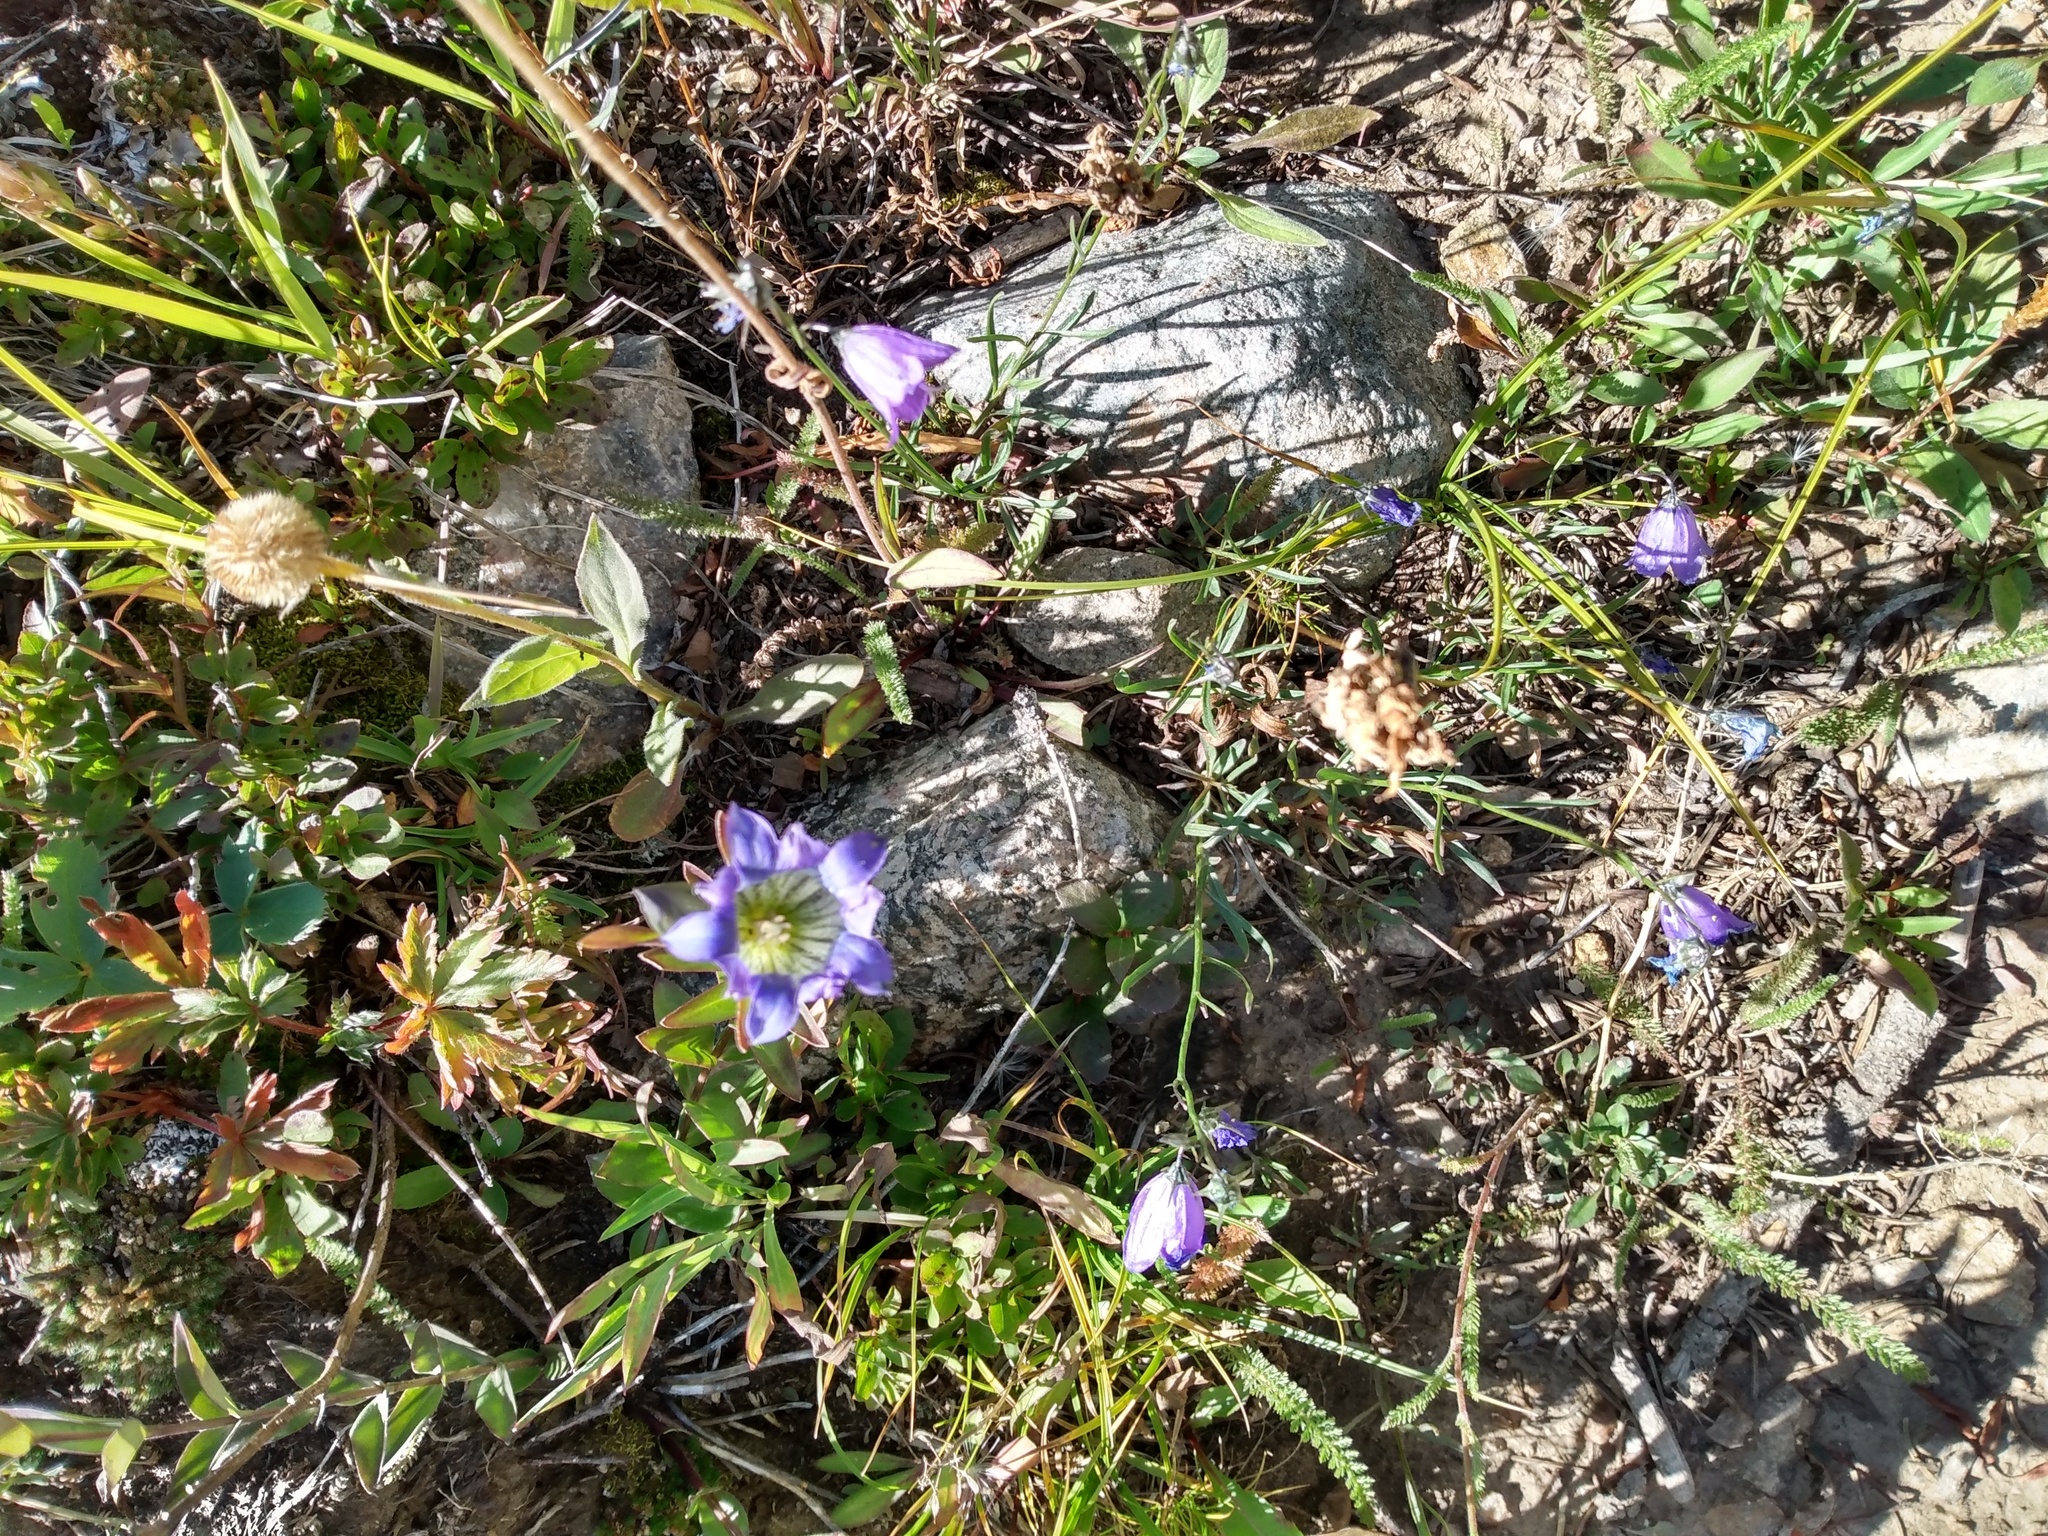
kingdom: Plantae
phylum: Tracheophyta
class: Magnoliopsida
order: Gentianales
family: Gentianaceae
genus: Gentiana
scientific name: Gentiana parryi
